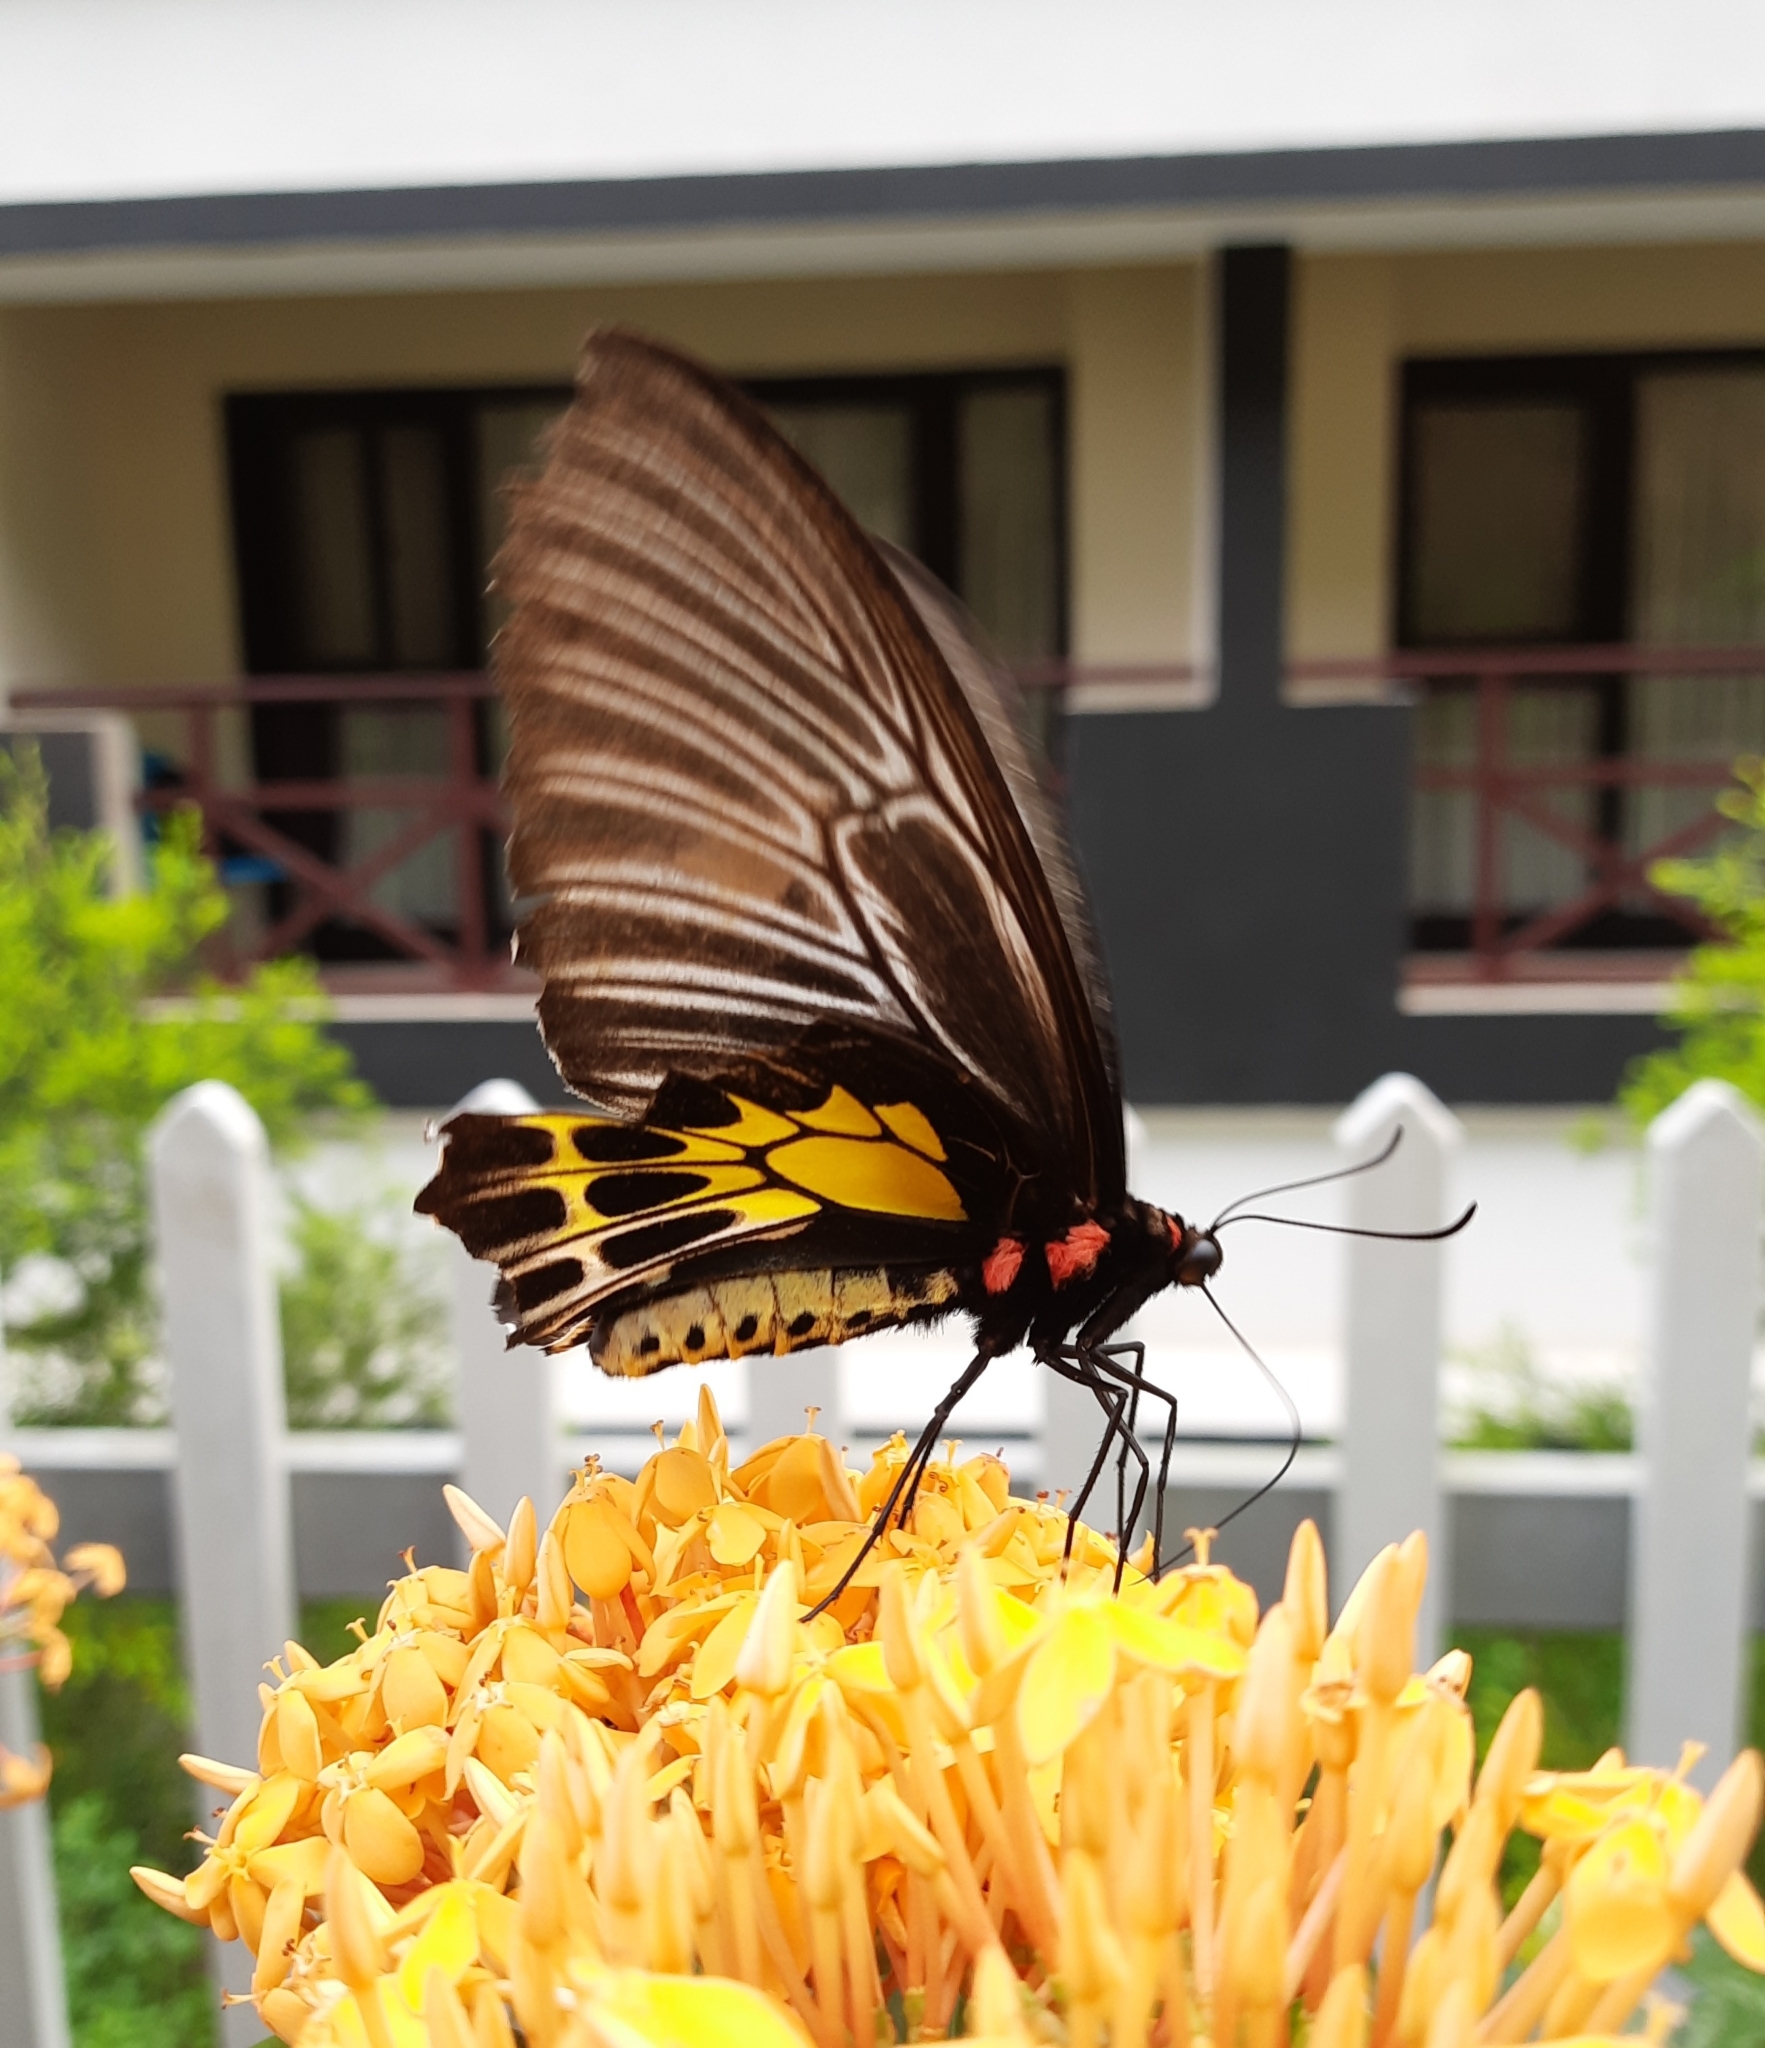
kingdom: Animalia
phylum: Arthropoda
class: Insecta
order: Lepidoptera
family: Papilionidae
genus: Troides
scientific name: Troides minos
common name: Malabar birdwing
